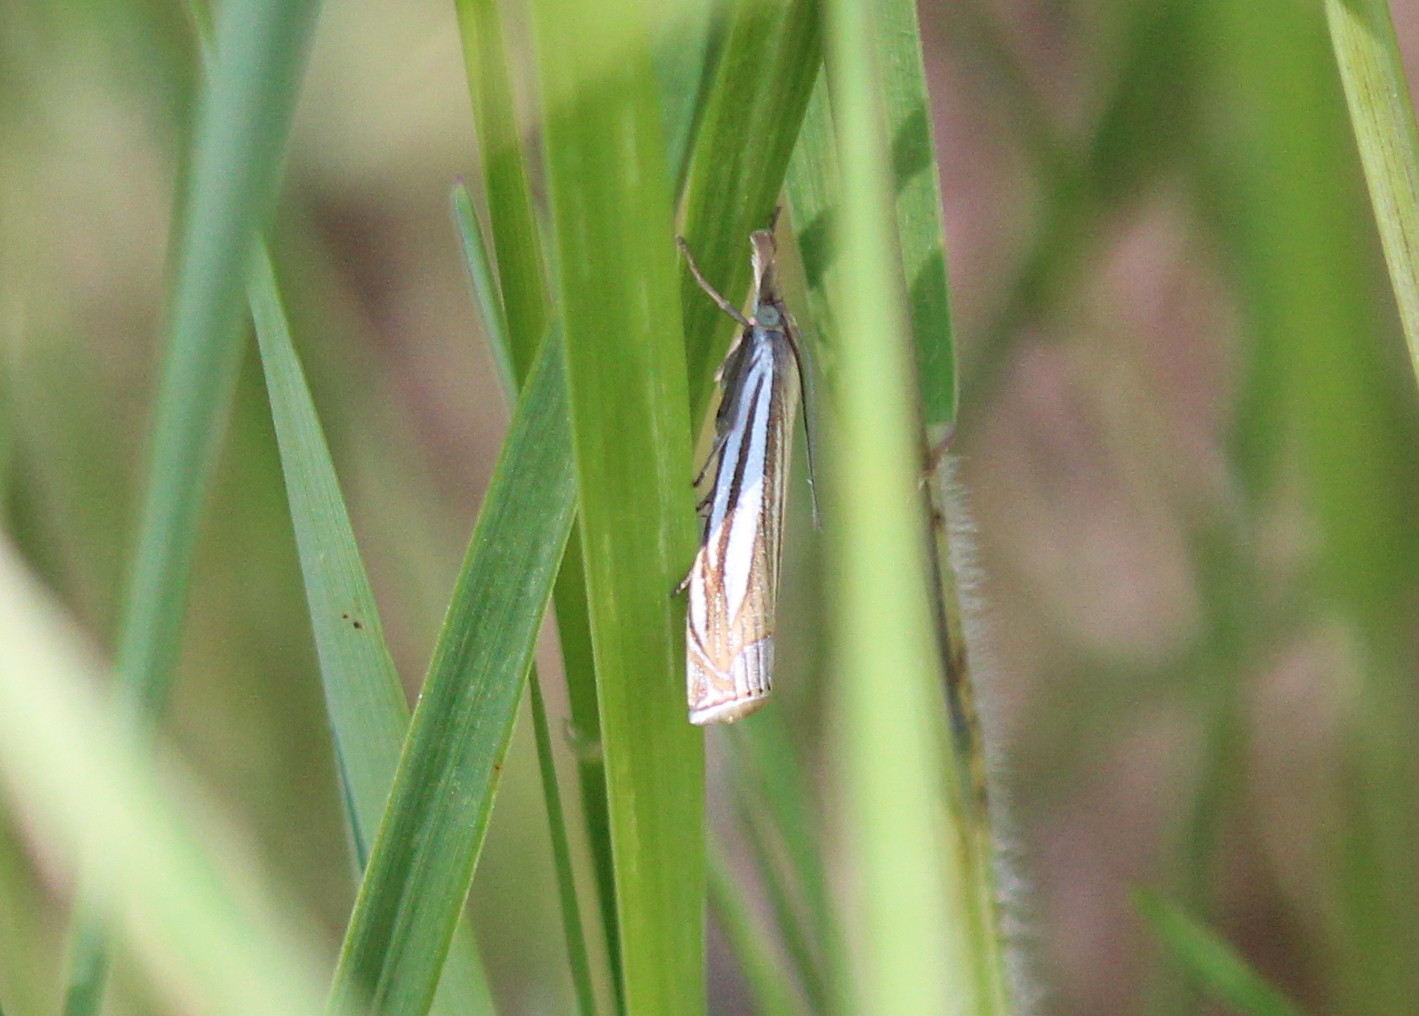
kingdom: Animalia
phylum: Arthropoda
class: Insecta
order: Lepidoptera
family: Crambidae
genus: Crambus
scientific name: Crambus laqueatellus
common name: Eastern grass-veneer
